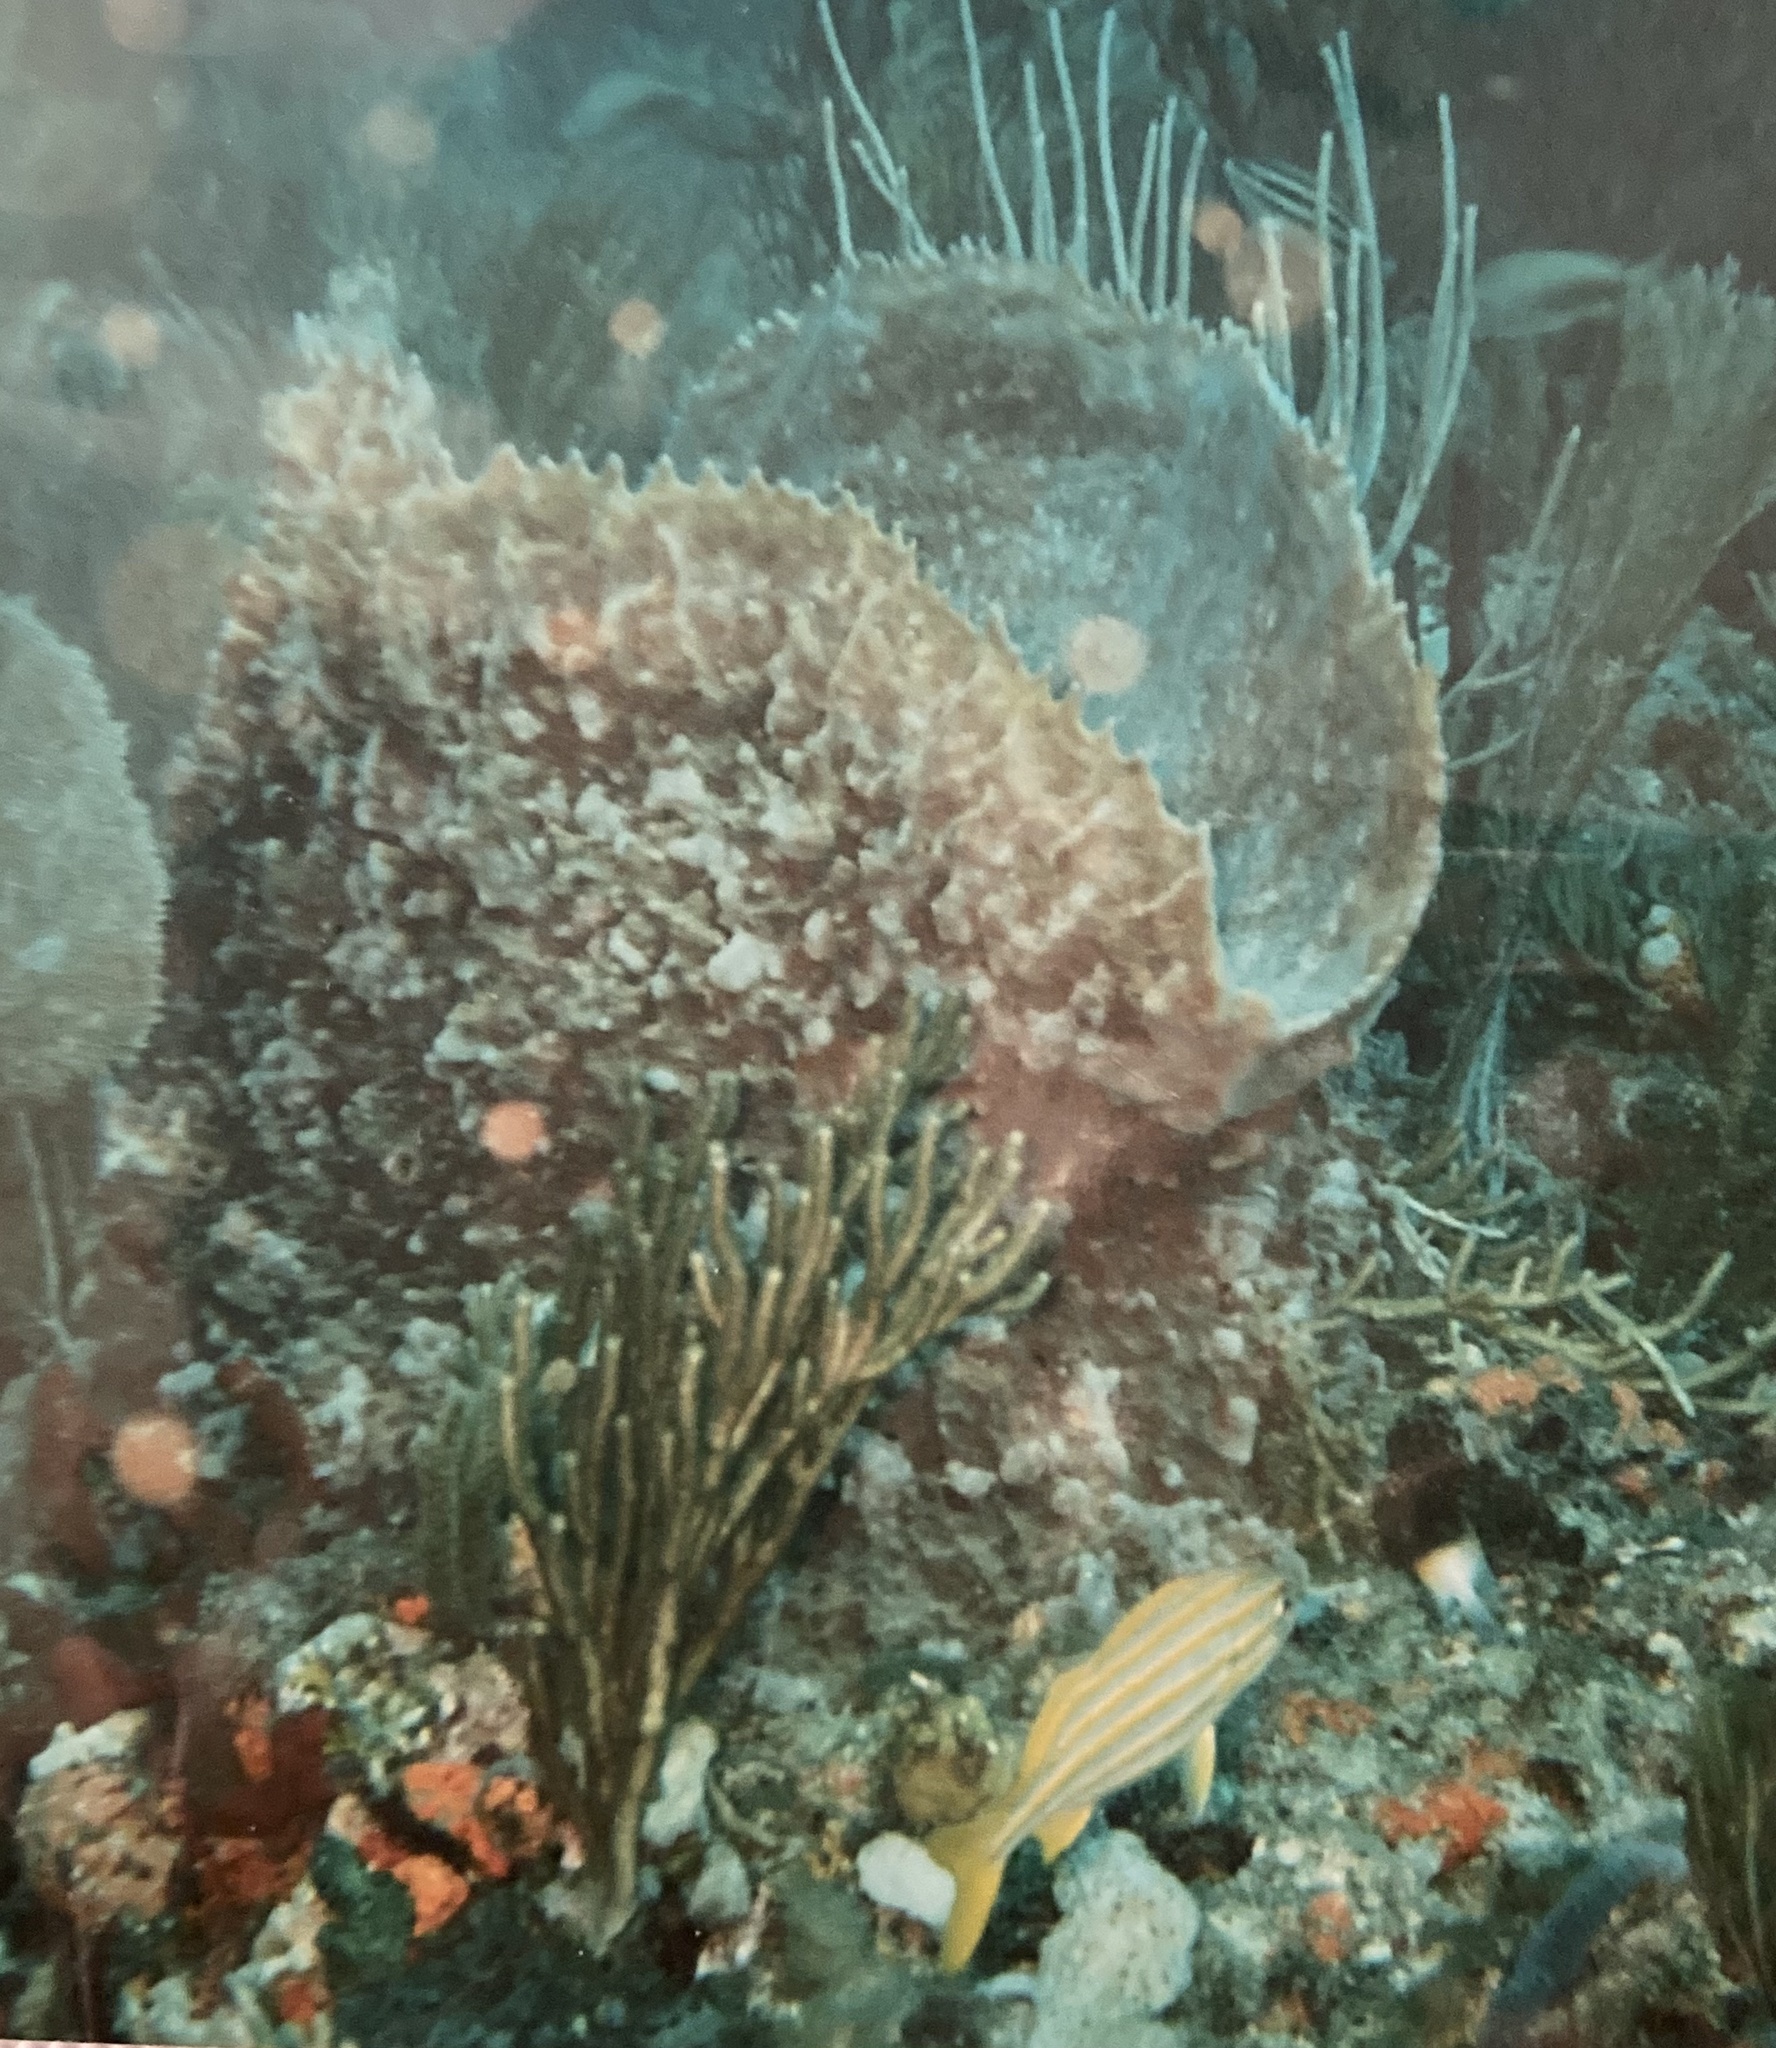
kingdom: Animalia
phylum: Porifera
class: Demospongiae
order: Haplosclerida
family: Petrosiidae
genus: Xestospongia
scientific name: Xestospongia muta
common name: Giant barrel sponge
